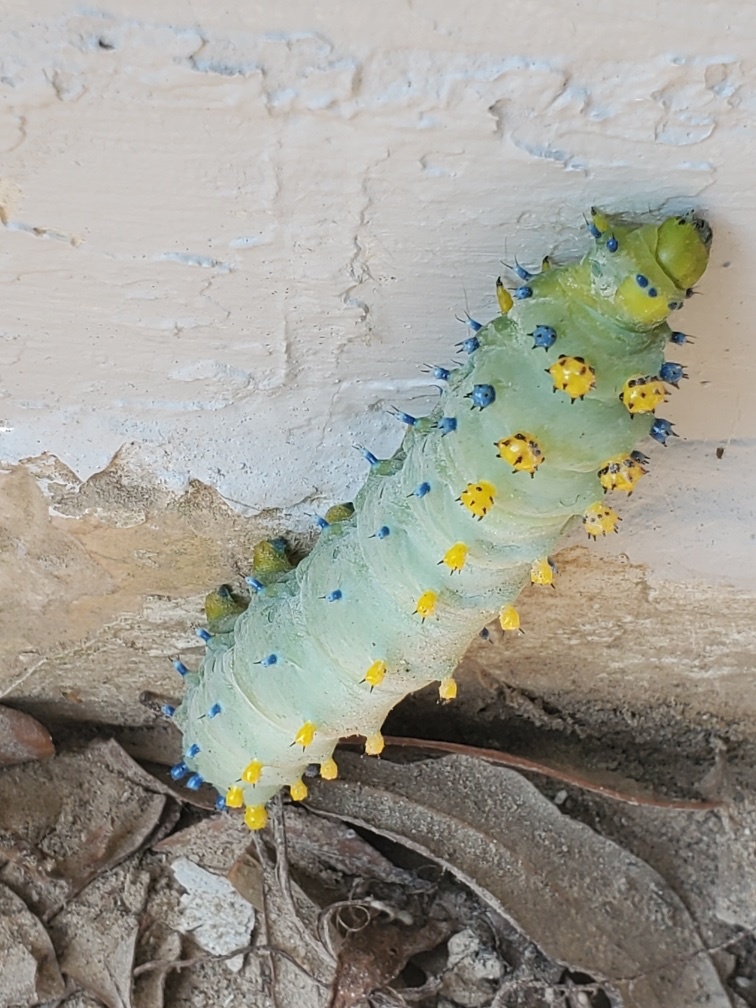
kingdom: Animalia
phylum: Arthropoda
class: Insecta
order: Lepidoptera
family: Saturniidae
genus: Hyalophora
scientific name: Hyalophora cecropia
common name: Cecropia silkmoth
